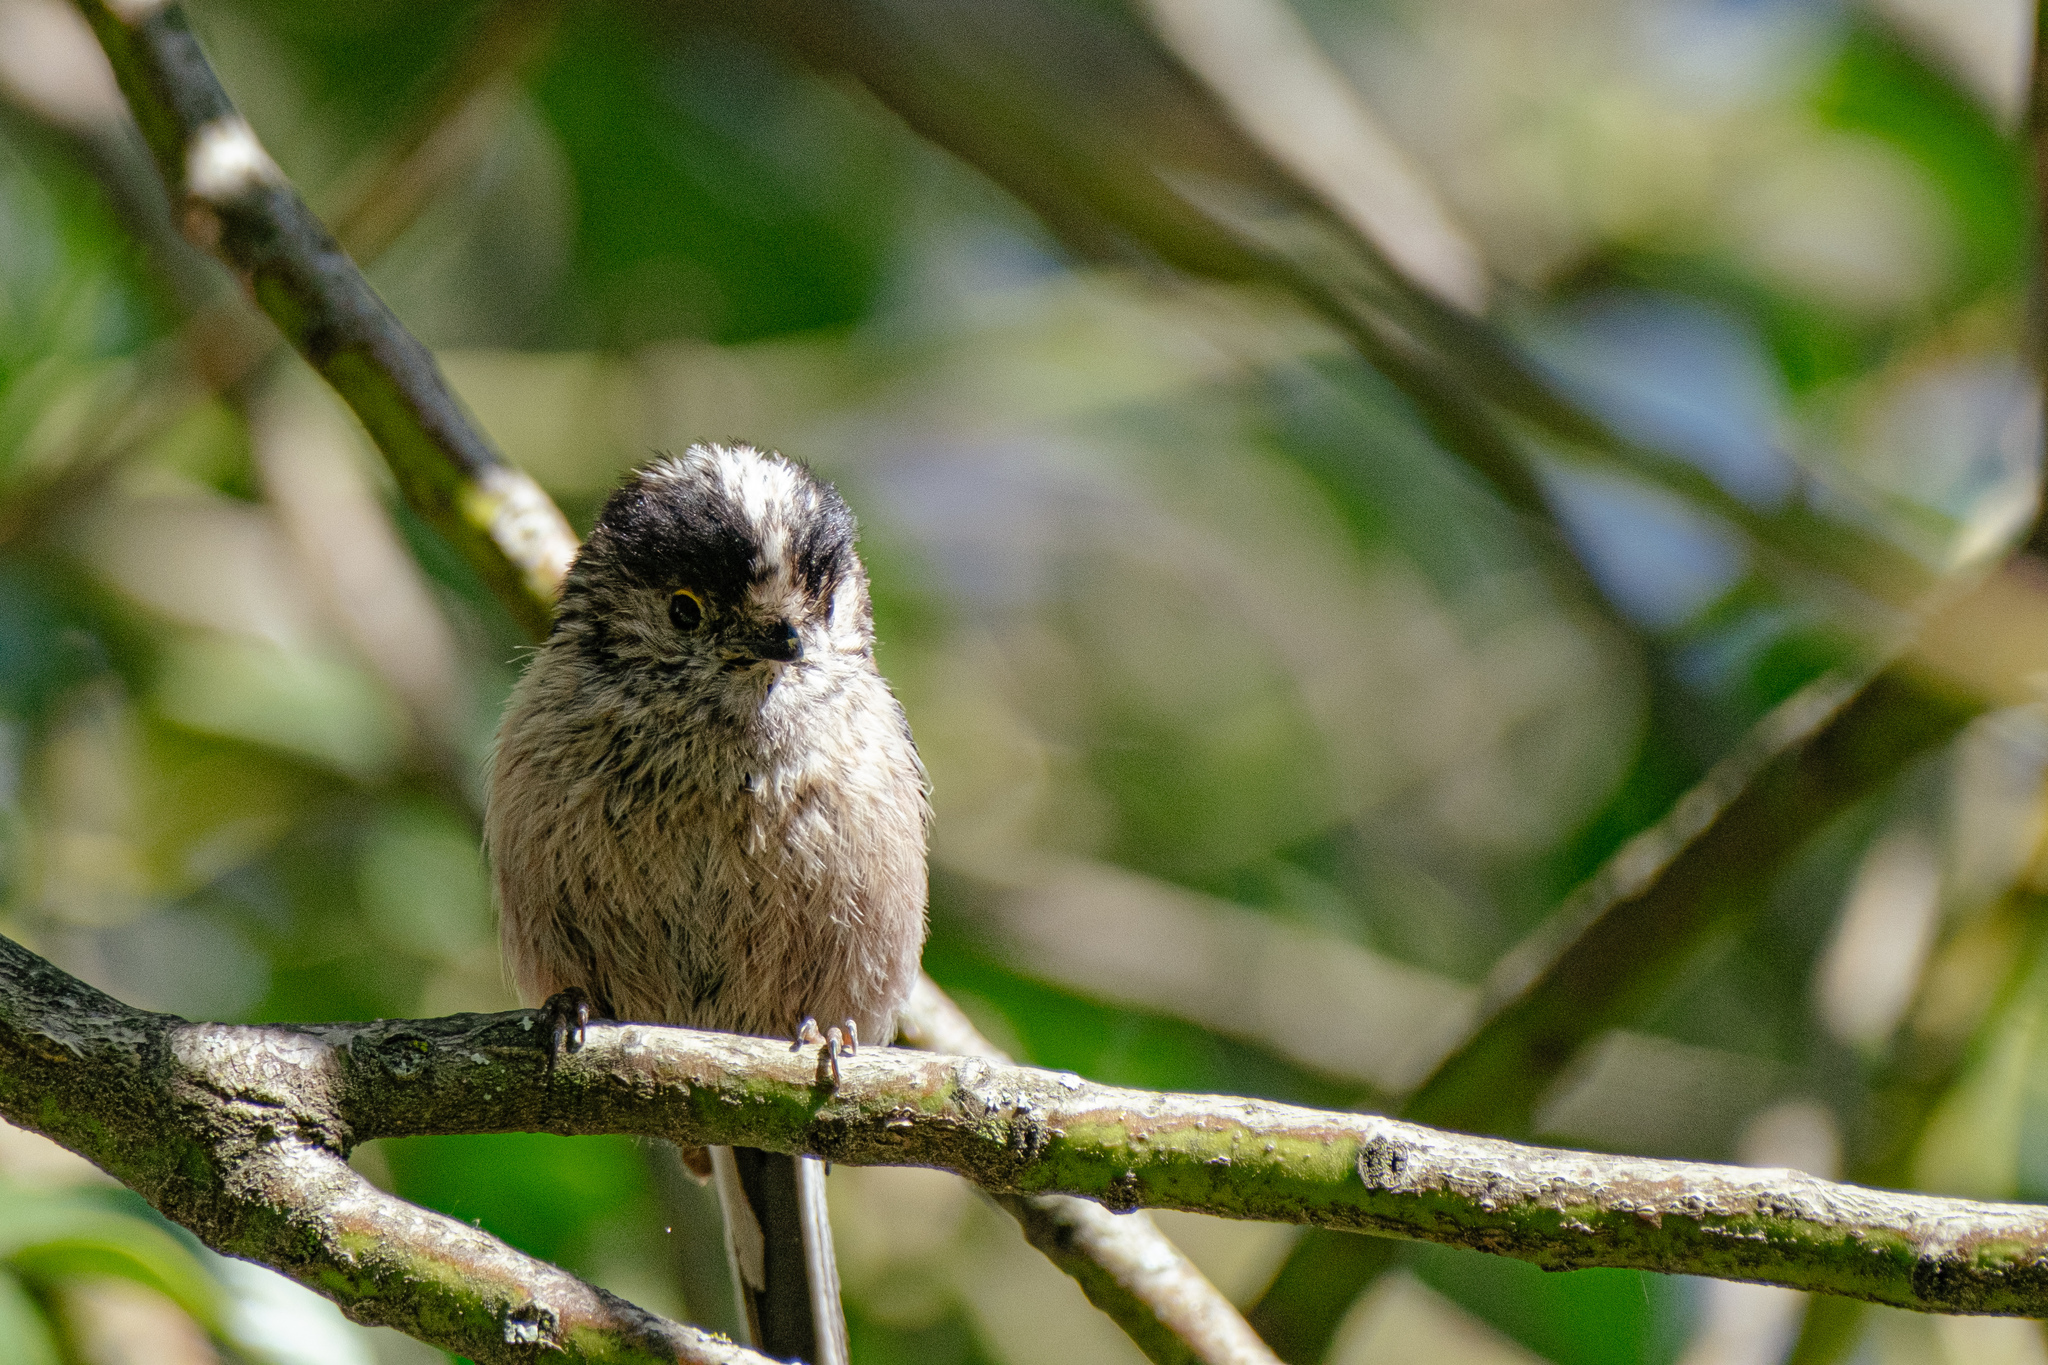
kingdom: Animalia
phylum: Chordata
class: Aves
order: Passeriformes
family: Aegithalidae
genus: Aegithalos
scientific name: Aegithalos caudatus
